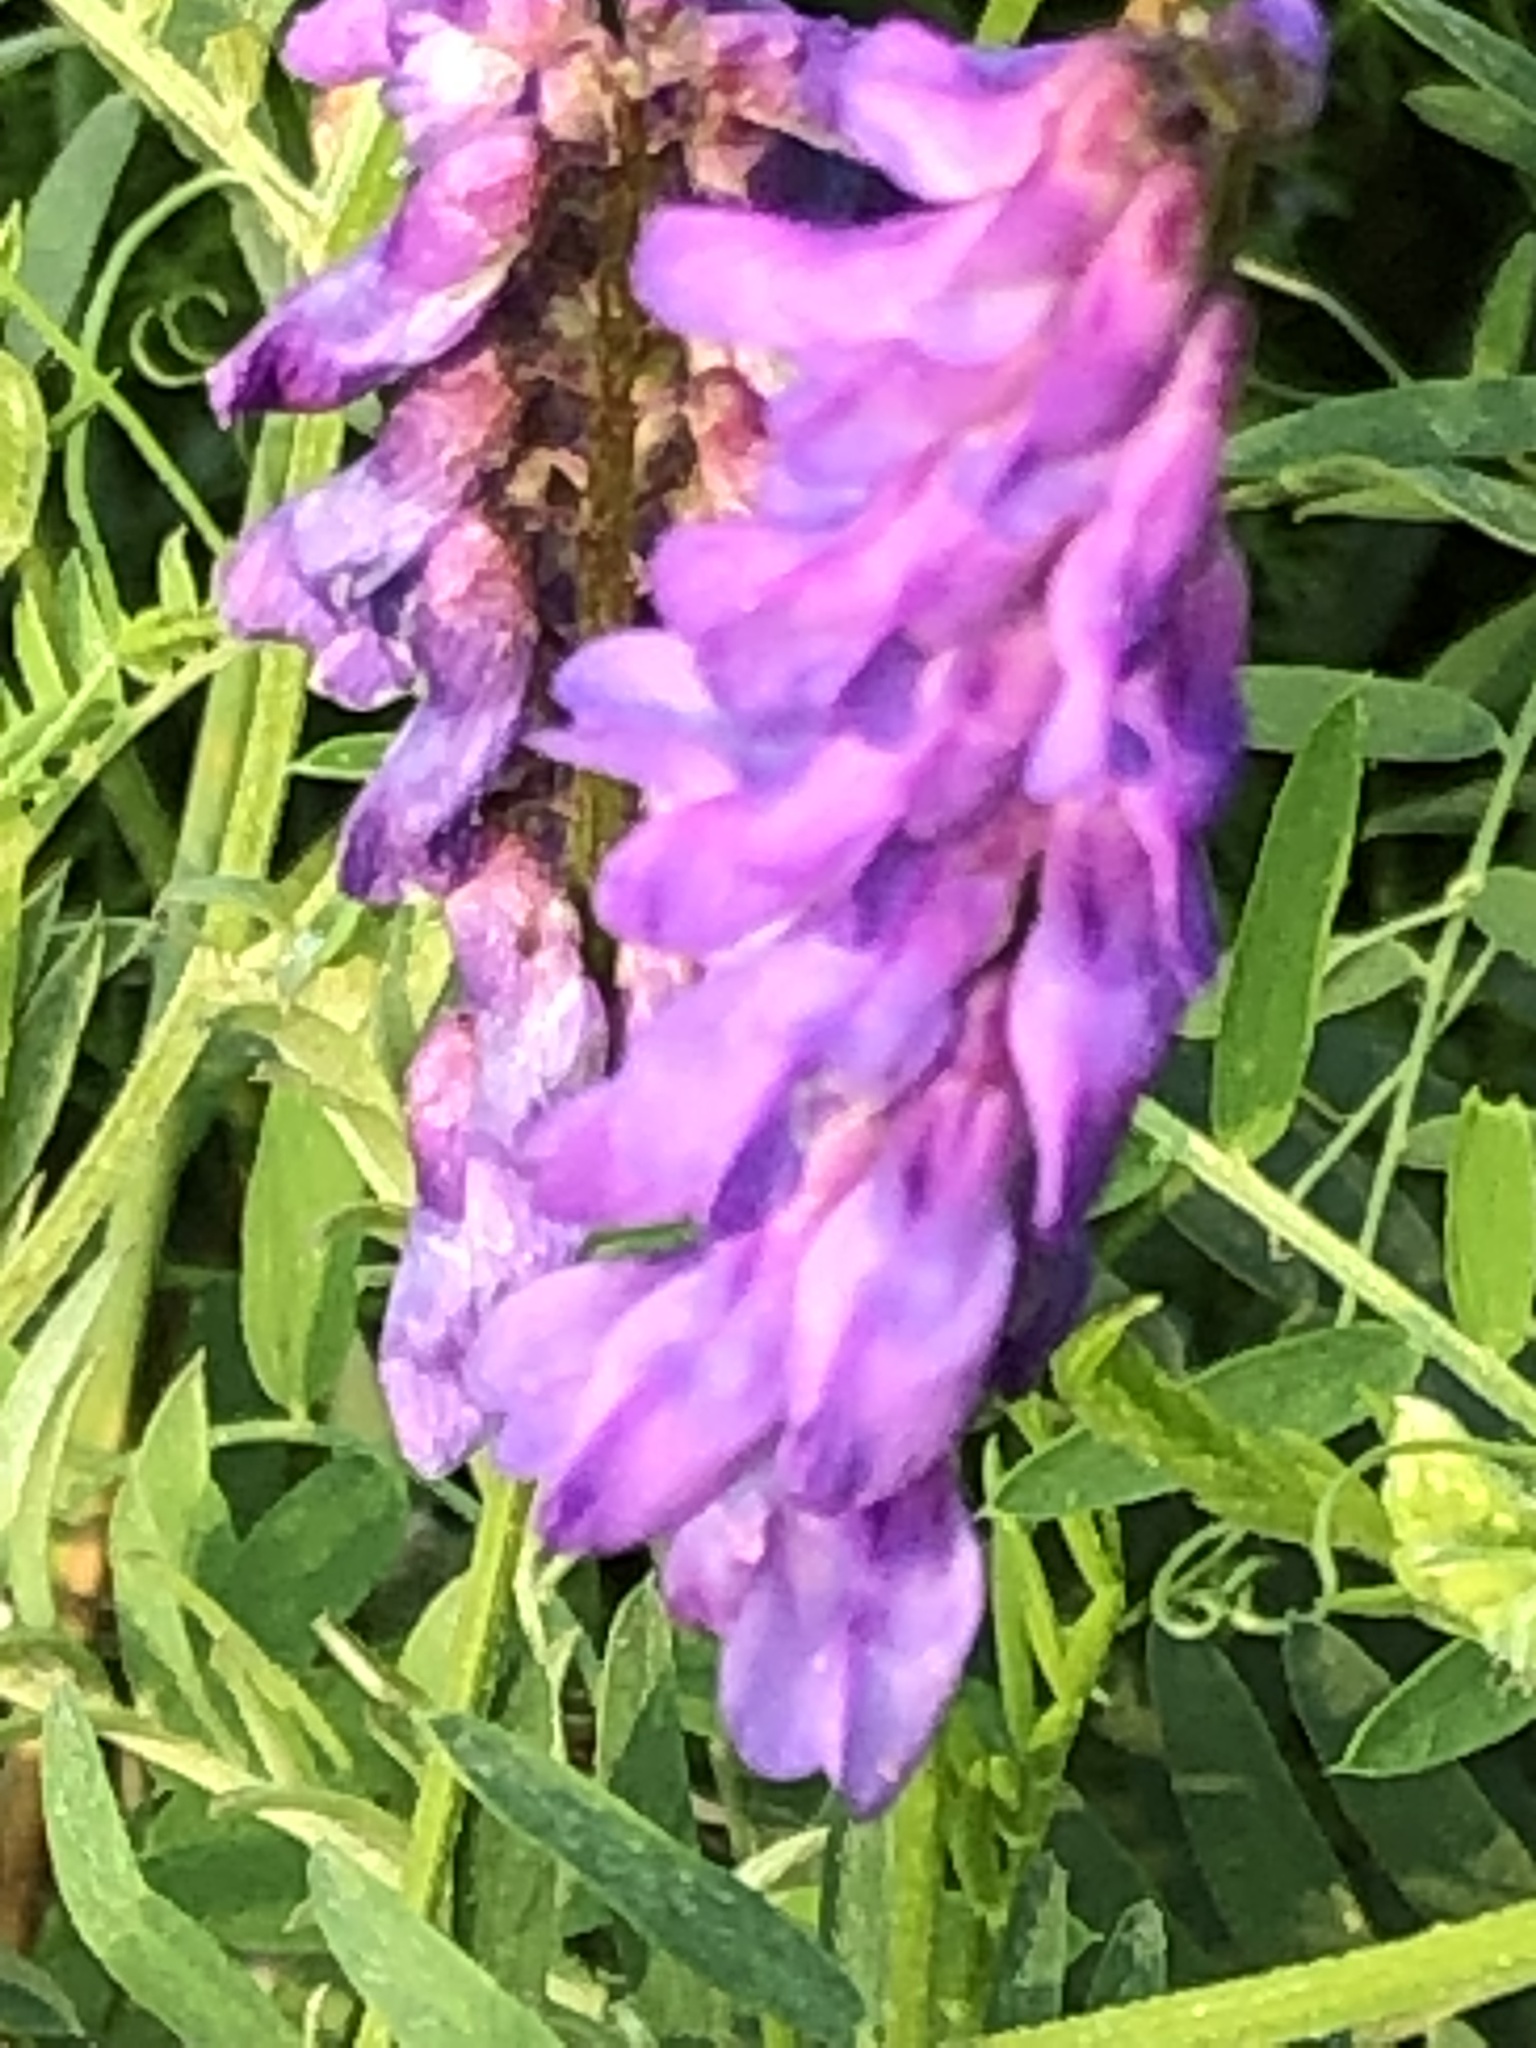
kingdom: Plantae
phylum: Tracheophyta
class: Magnoliopsida
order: Fabales
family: Fabaceae
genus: Vicia
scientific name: Vicia cracca
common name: Bird vetch
